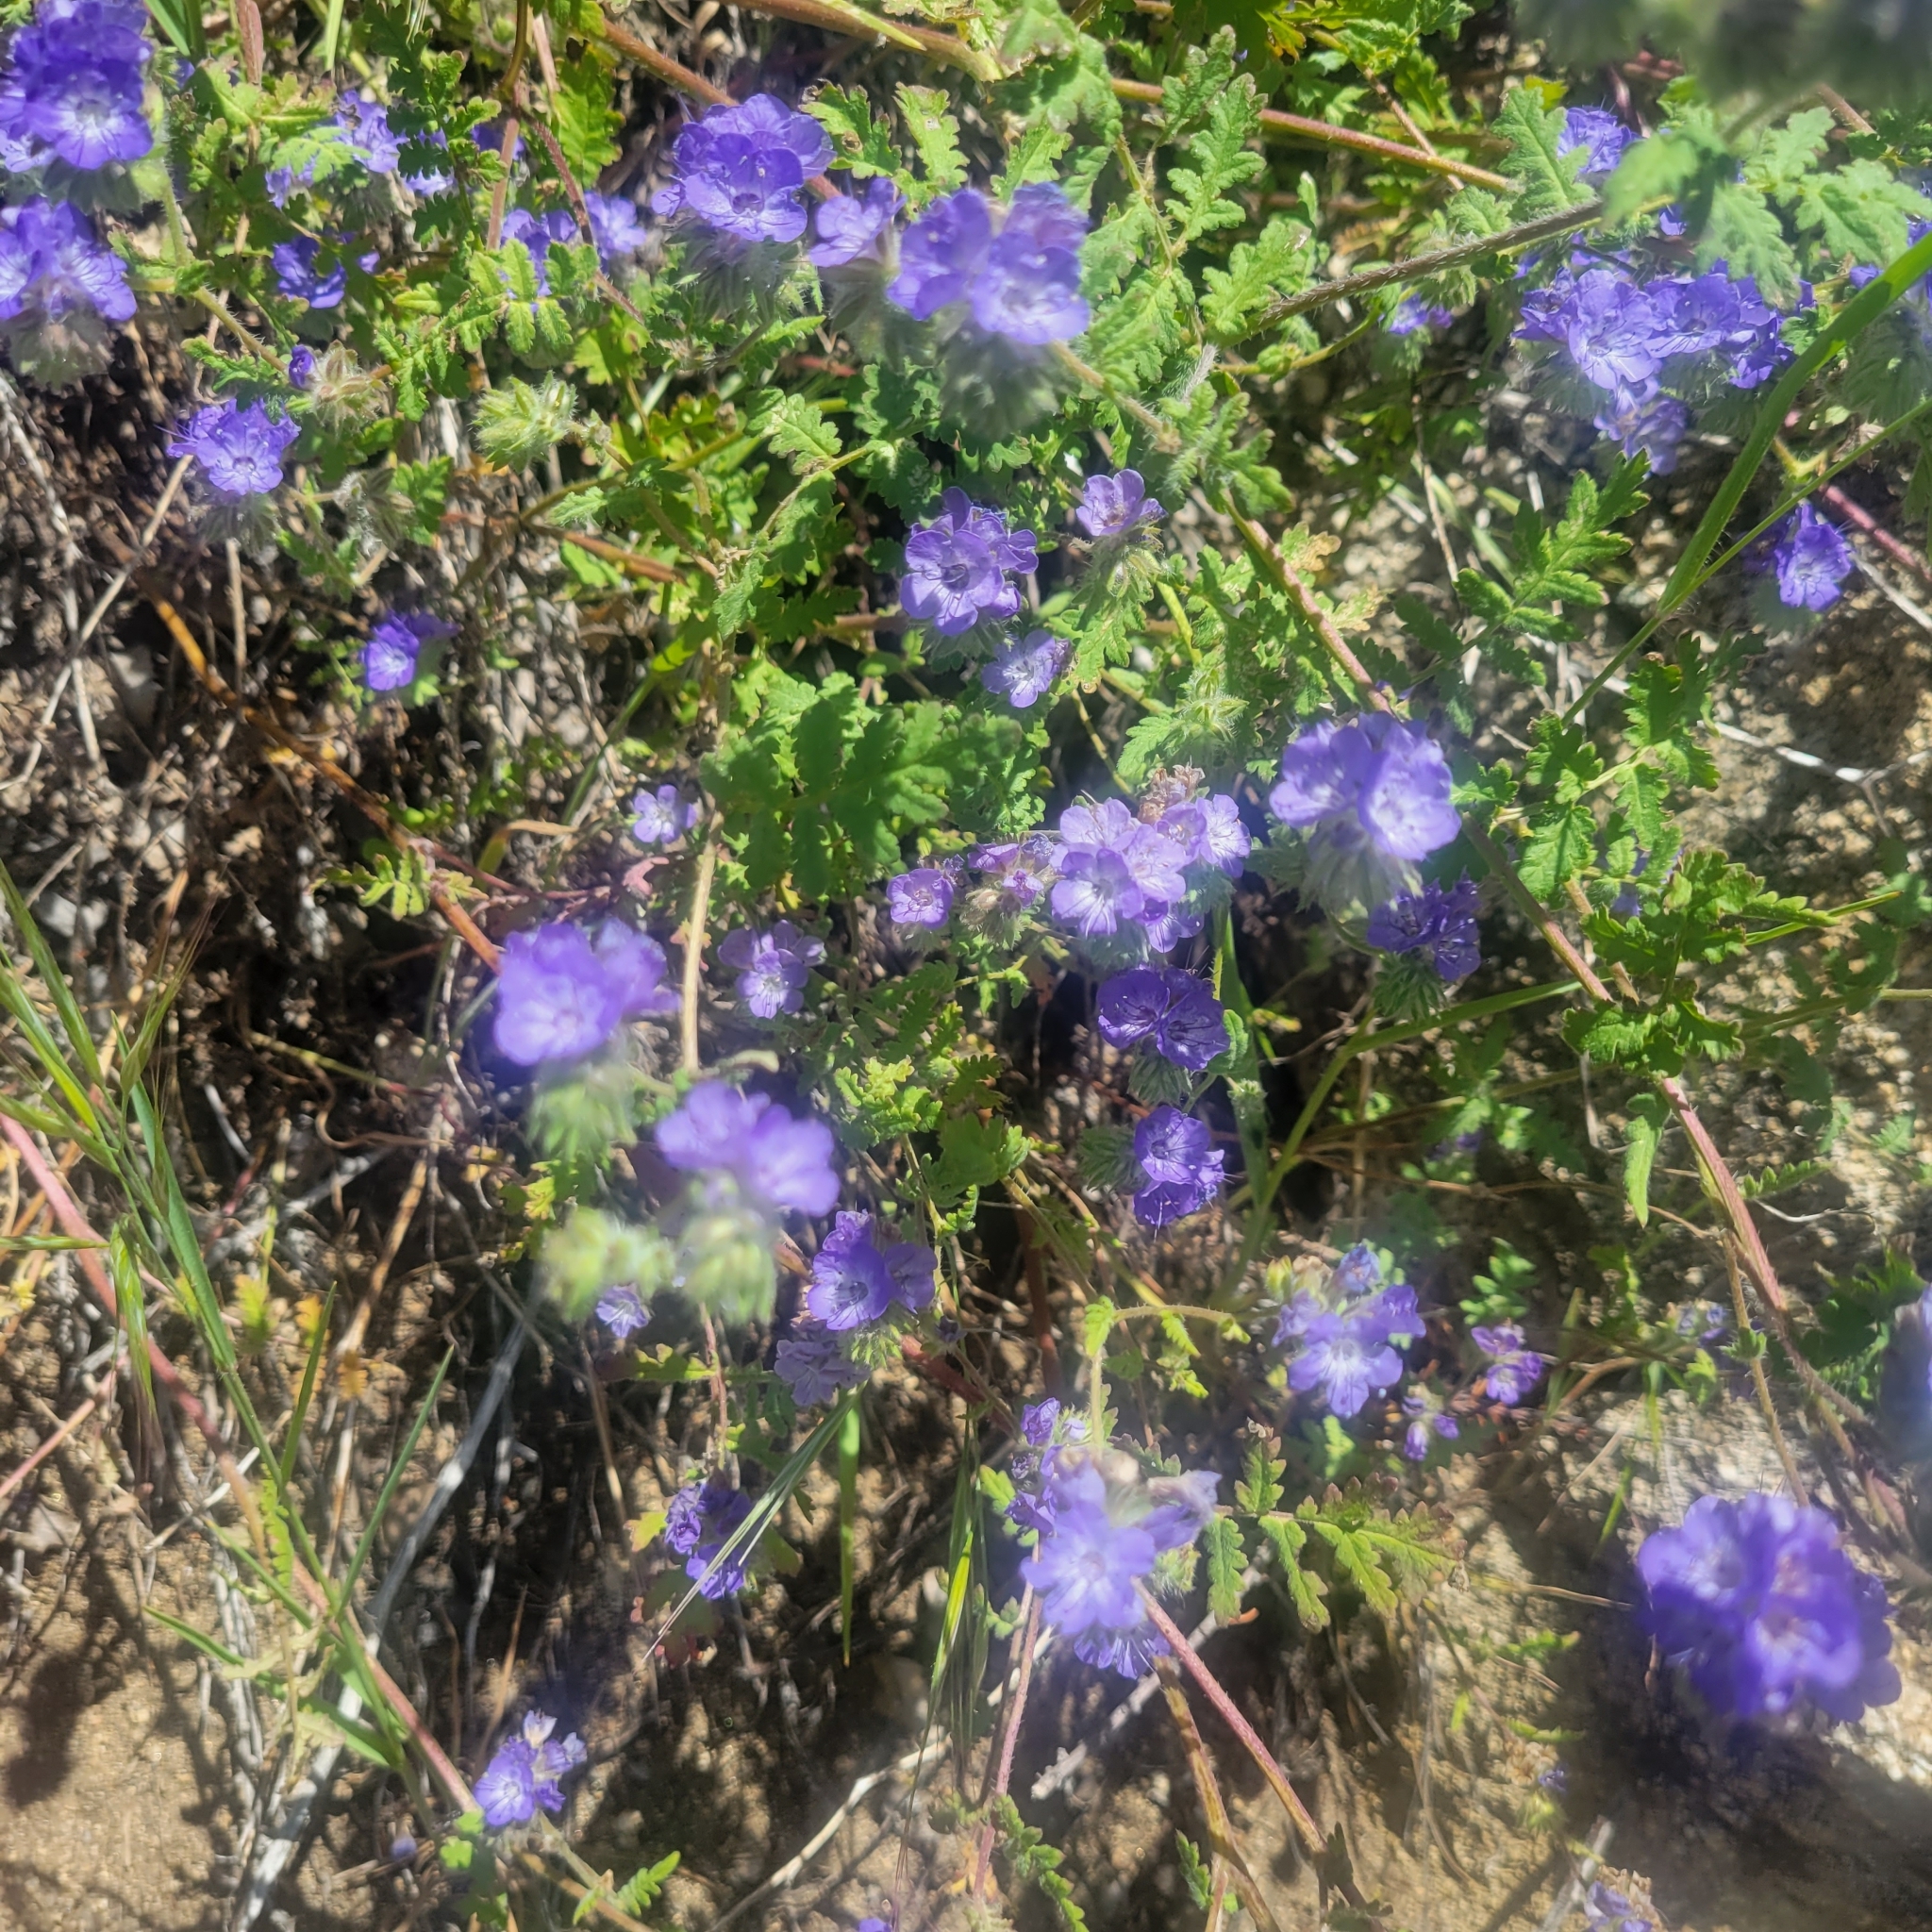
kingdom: Plantae
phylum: Tracheophyta
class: Magnoliopsida
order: Boraginales
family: Hydrophyllaceae
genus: Phacelia
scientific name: Phacelia distans
